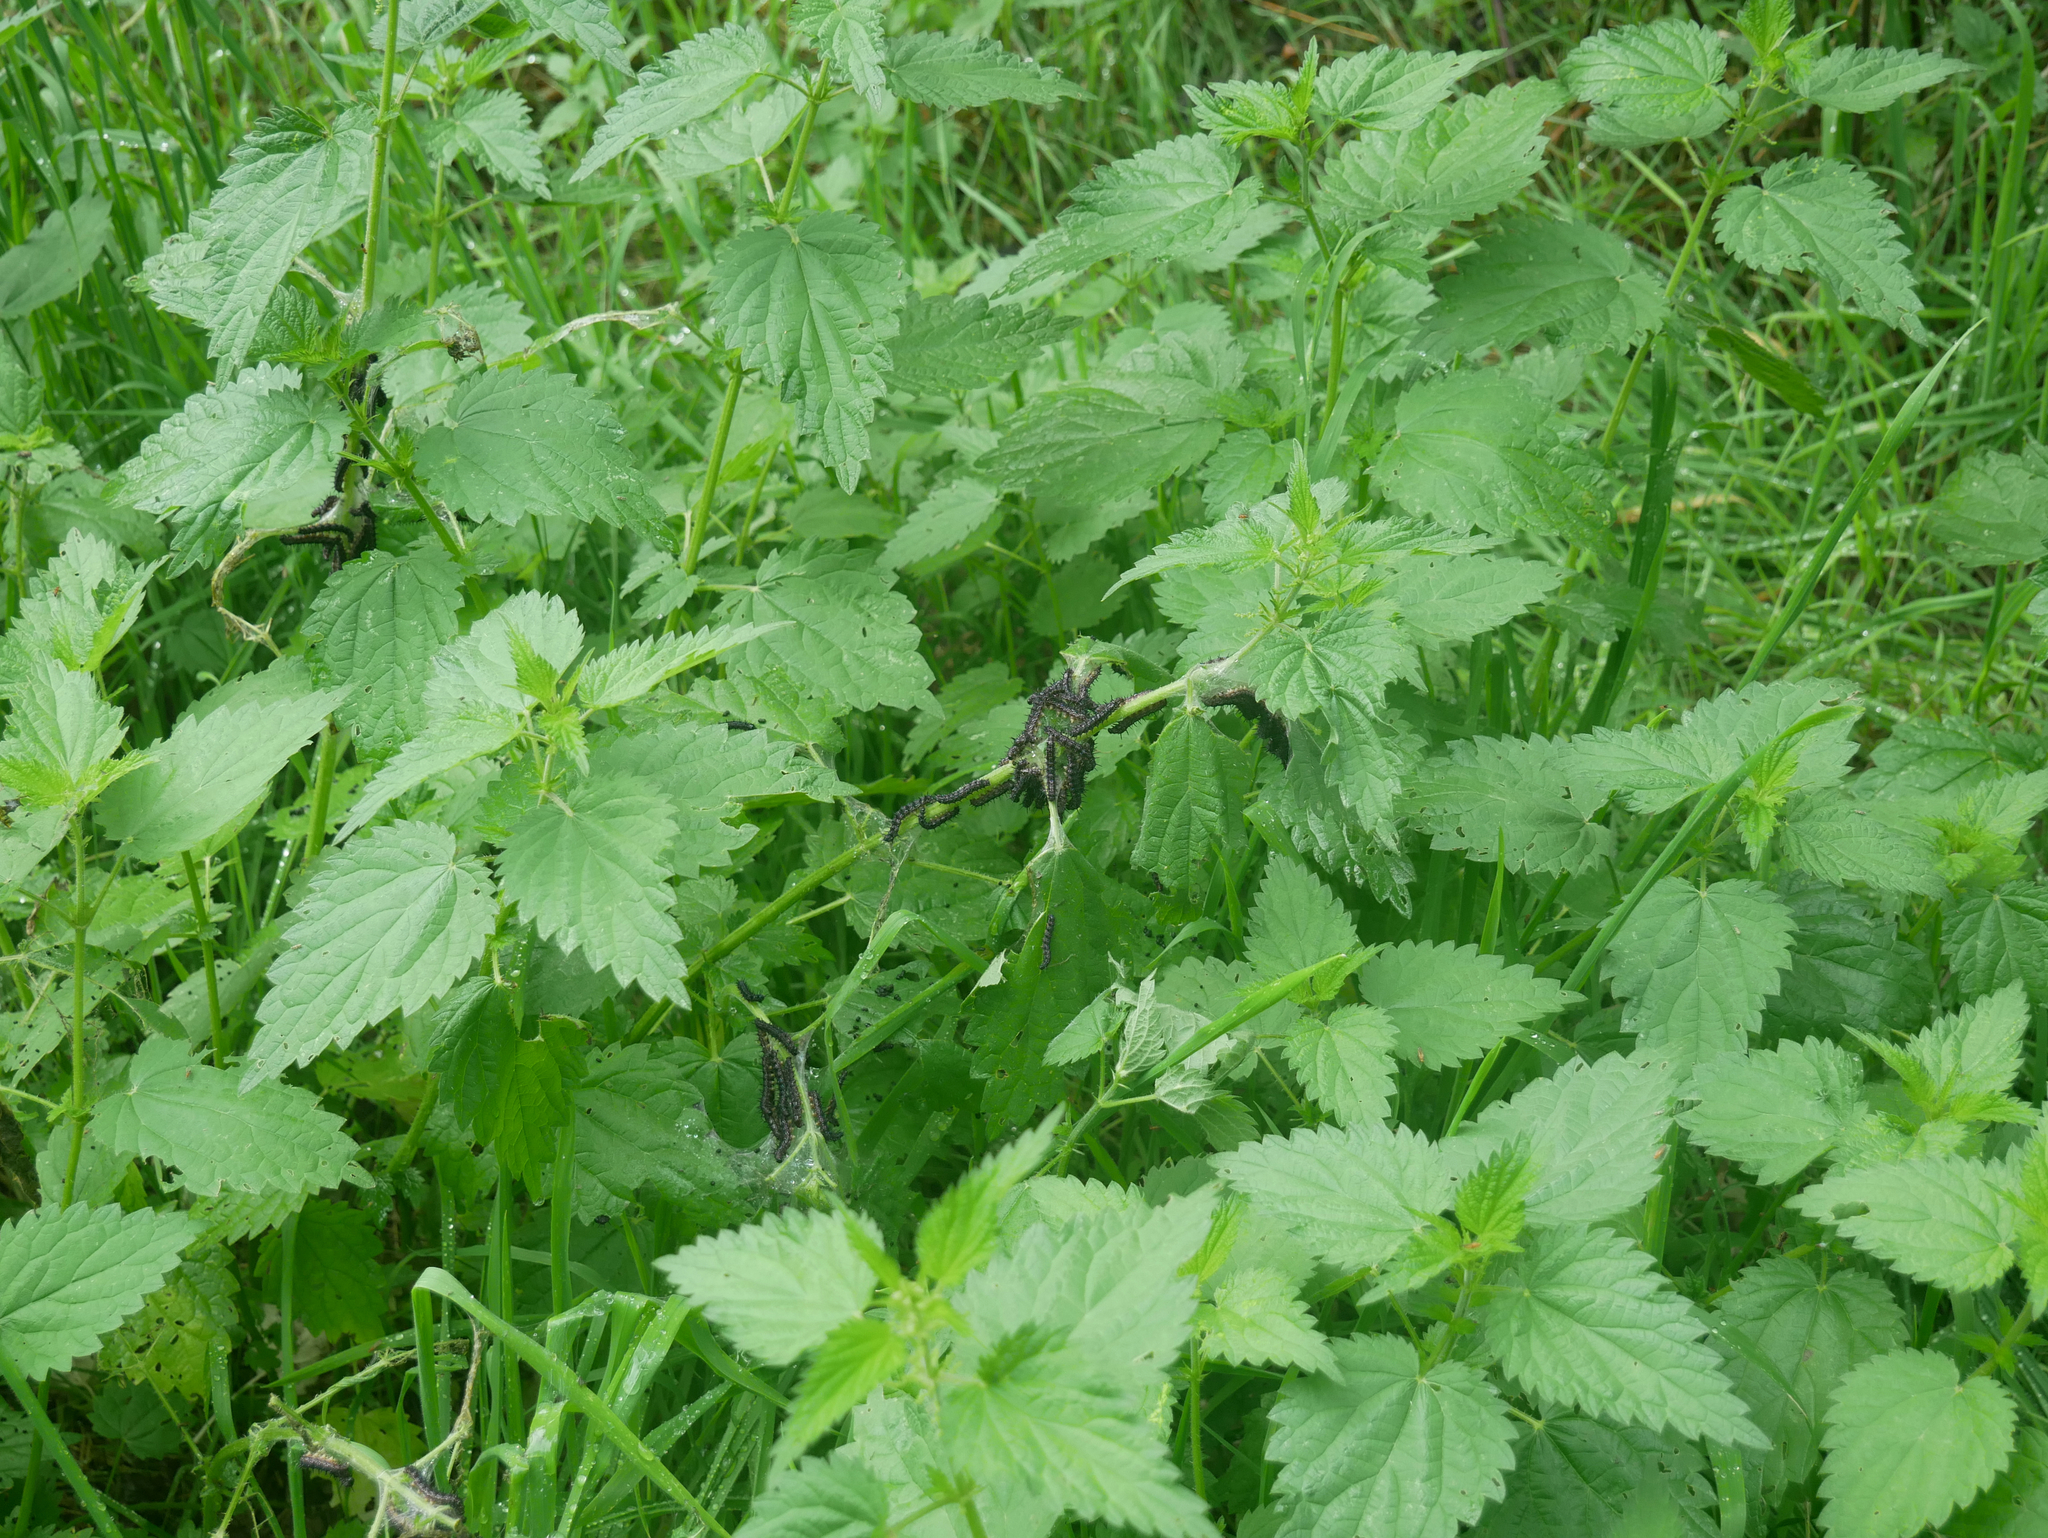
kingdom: Plantae
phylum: Tracheophyta
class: Magnoliopsida
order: Rosales
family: Urticaceae
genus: Urtica
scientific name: Urtica dioica
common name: Common nettle
